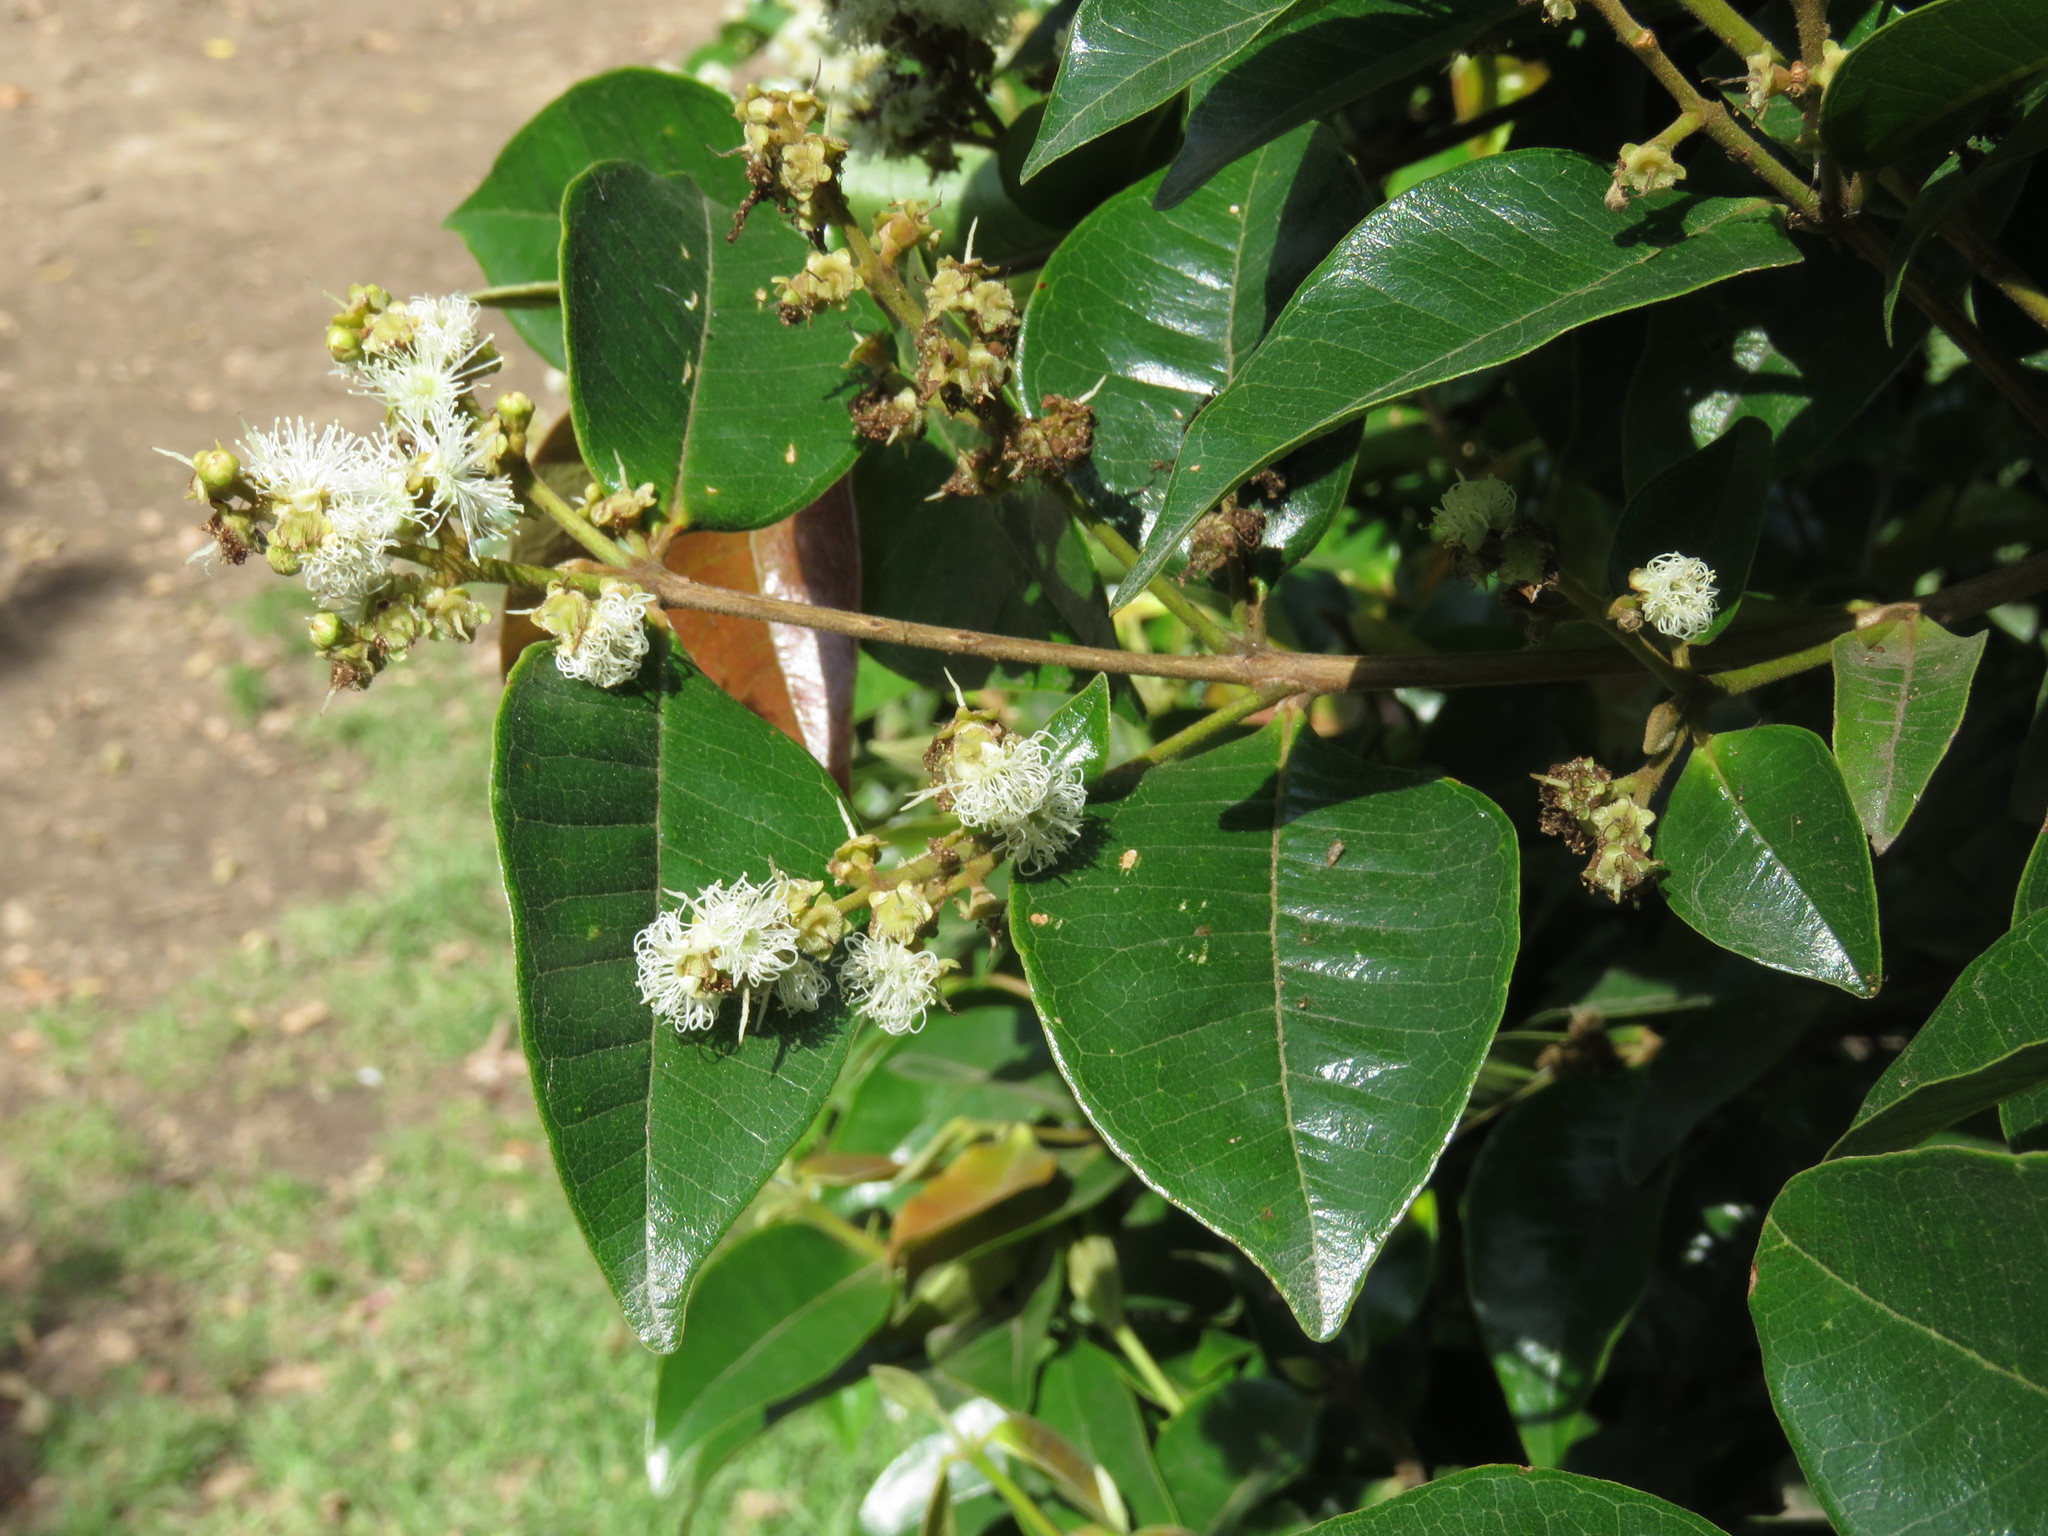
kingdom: Animalia
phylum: Arthropoda
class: Insecta
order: Hymenoptera
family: Apidae
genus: Apis
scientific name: Apis mellifera
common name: Honey bee
